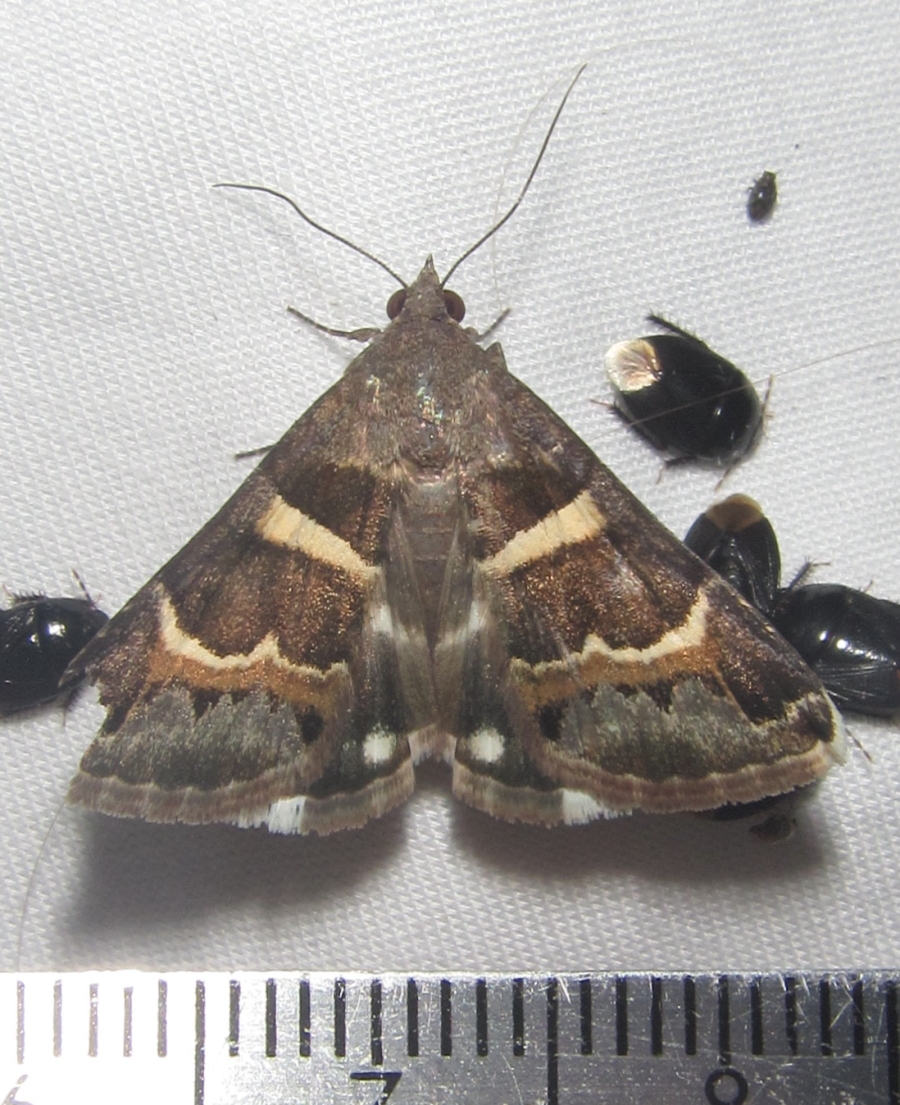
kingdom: Animalia
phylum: Arthropoda
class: Insecta
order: Lepidoptera
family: Erebidae
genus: Grammodes
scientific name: Grammodes stolida
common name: Geometrician
